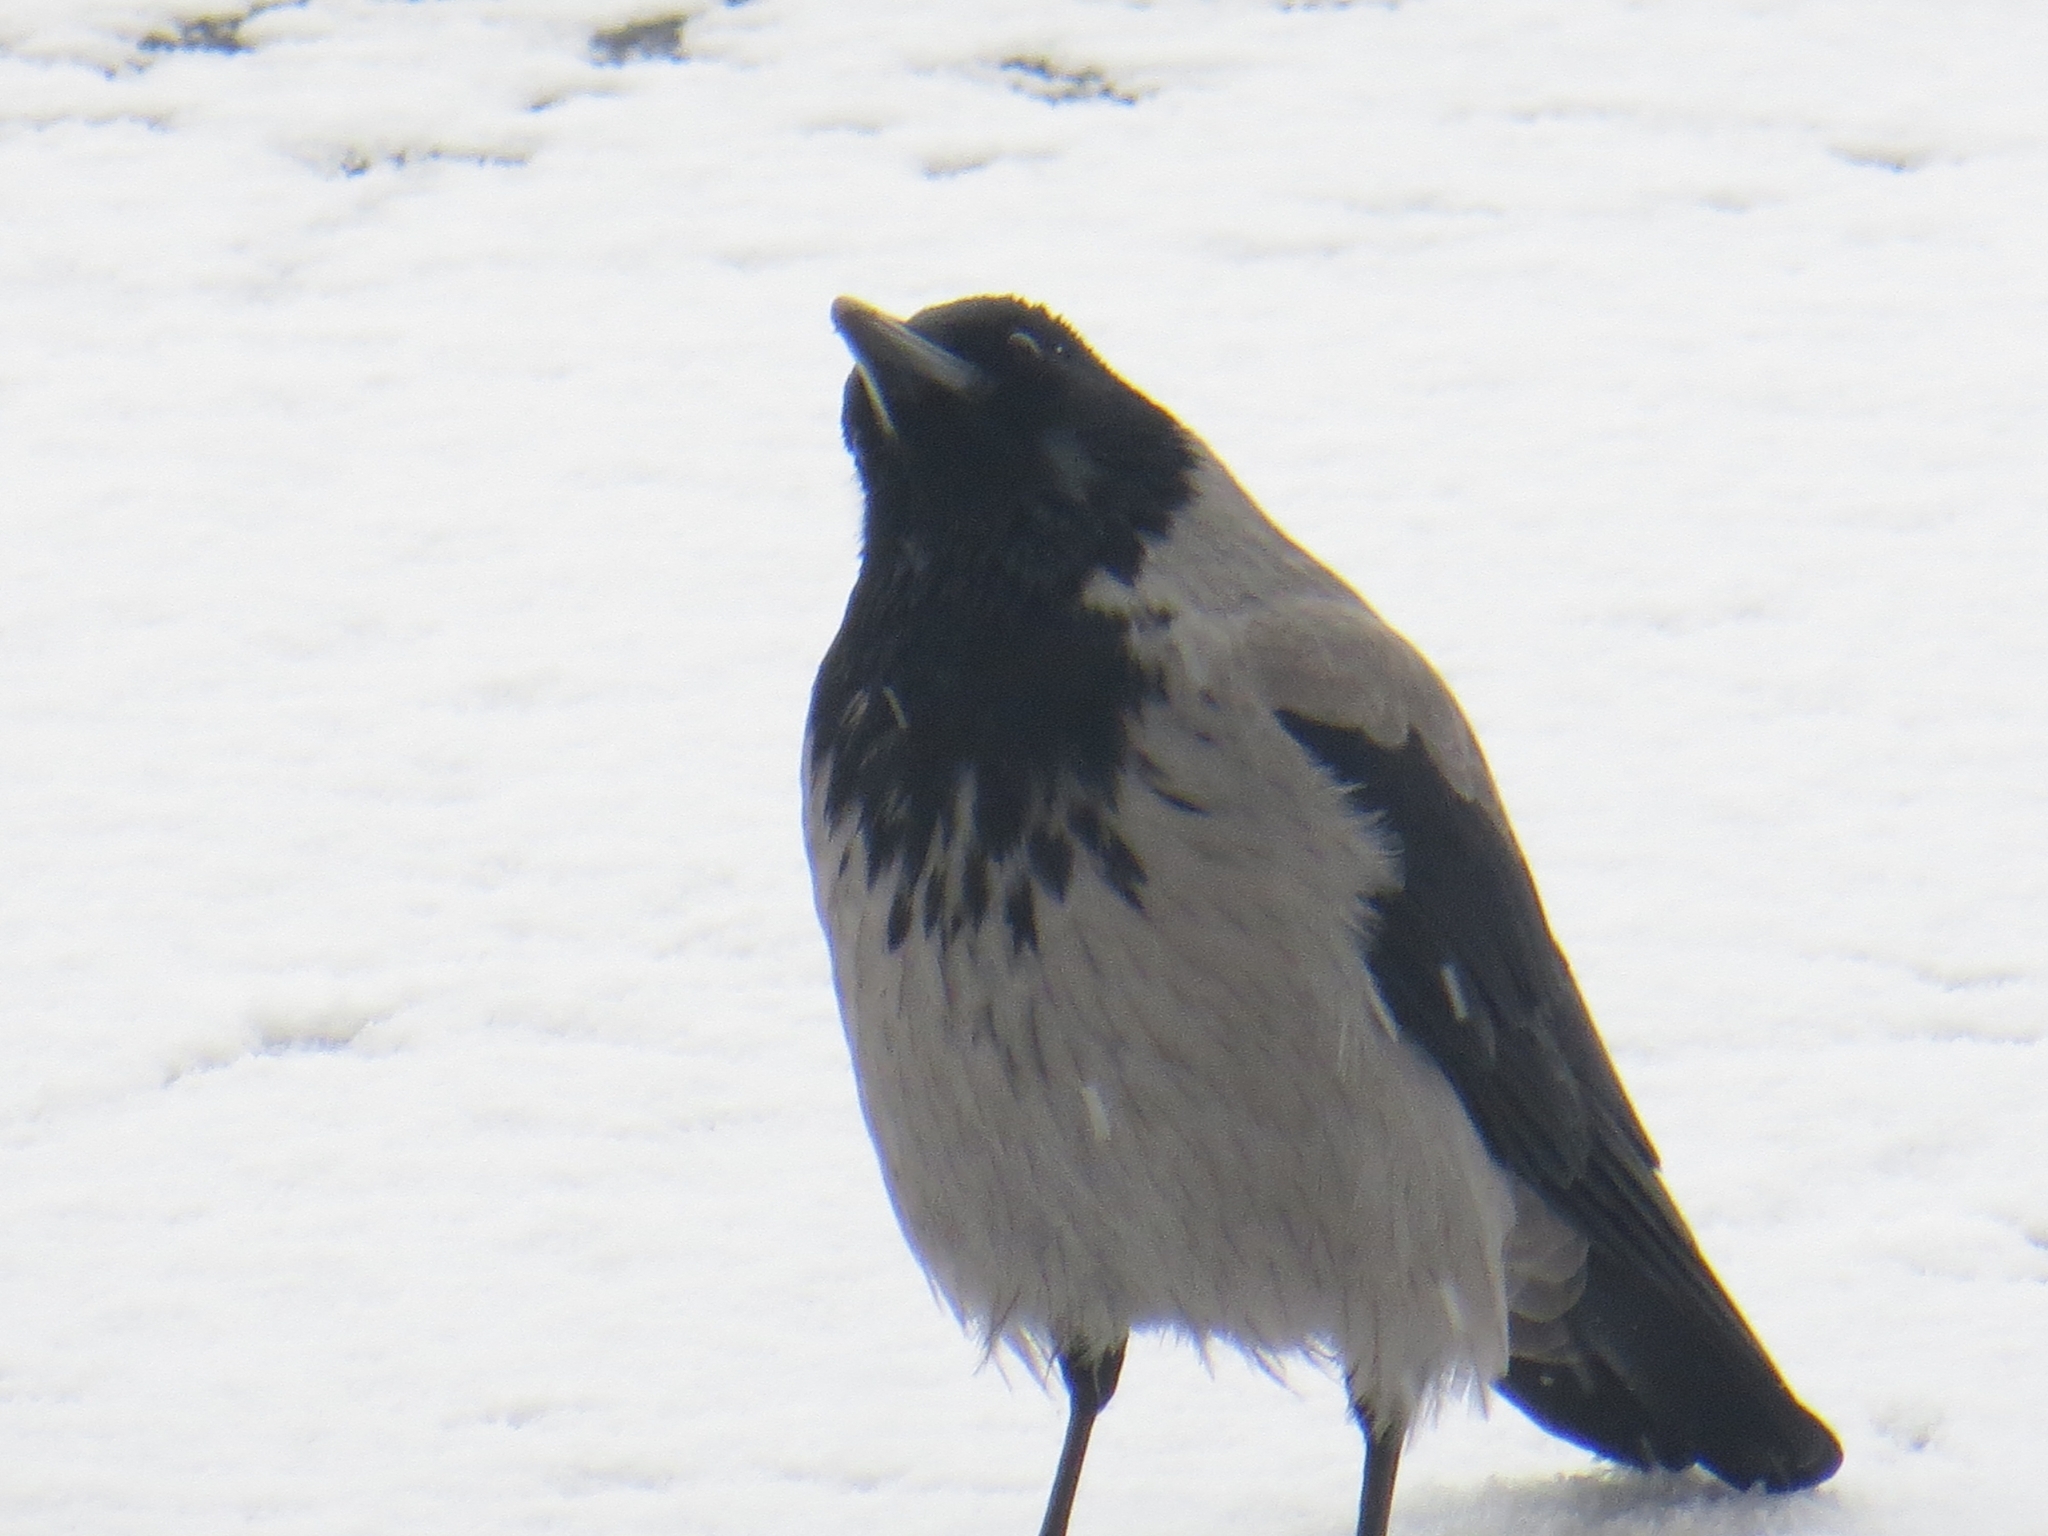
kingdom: Animalia
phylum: Chordata
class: Aves
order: Passeriformes
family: Corvidae
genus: Corvus
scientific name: Corvus cornix
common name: Hooded crow
